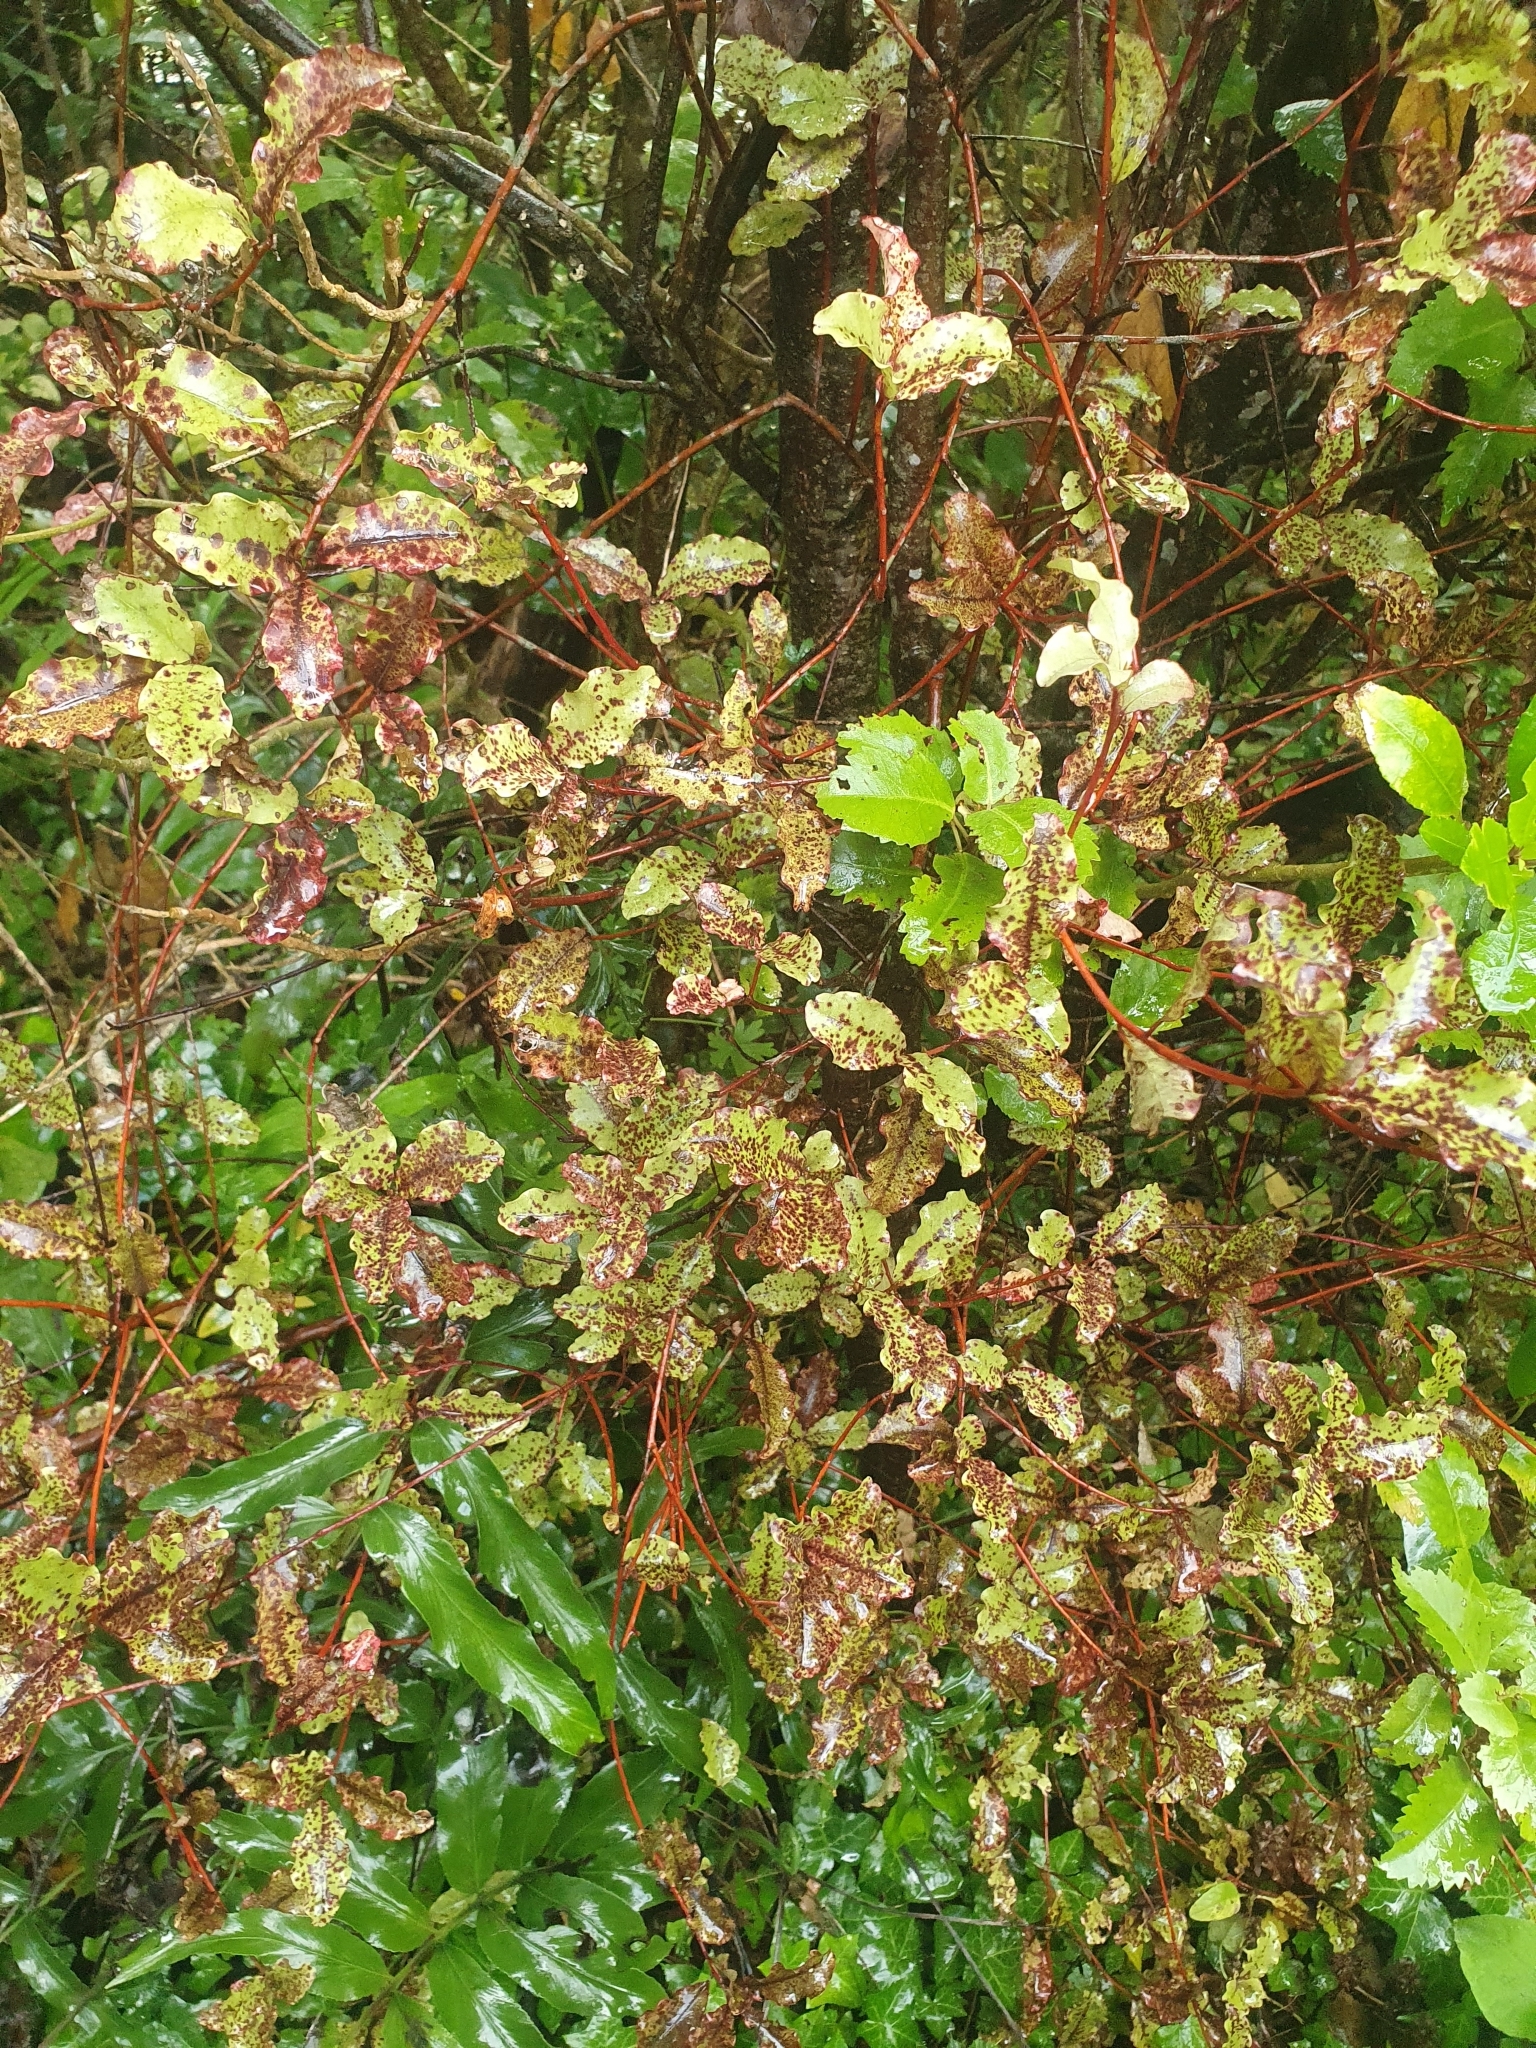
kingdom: Plantae
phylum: Tracheophyta
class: Magnoliopsida
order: Ericales
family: Primulaceae
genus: Myrsine
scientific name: Myrsine australis
